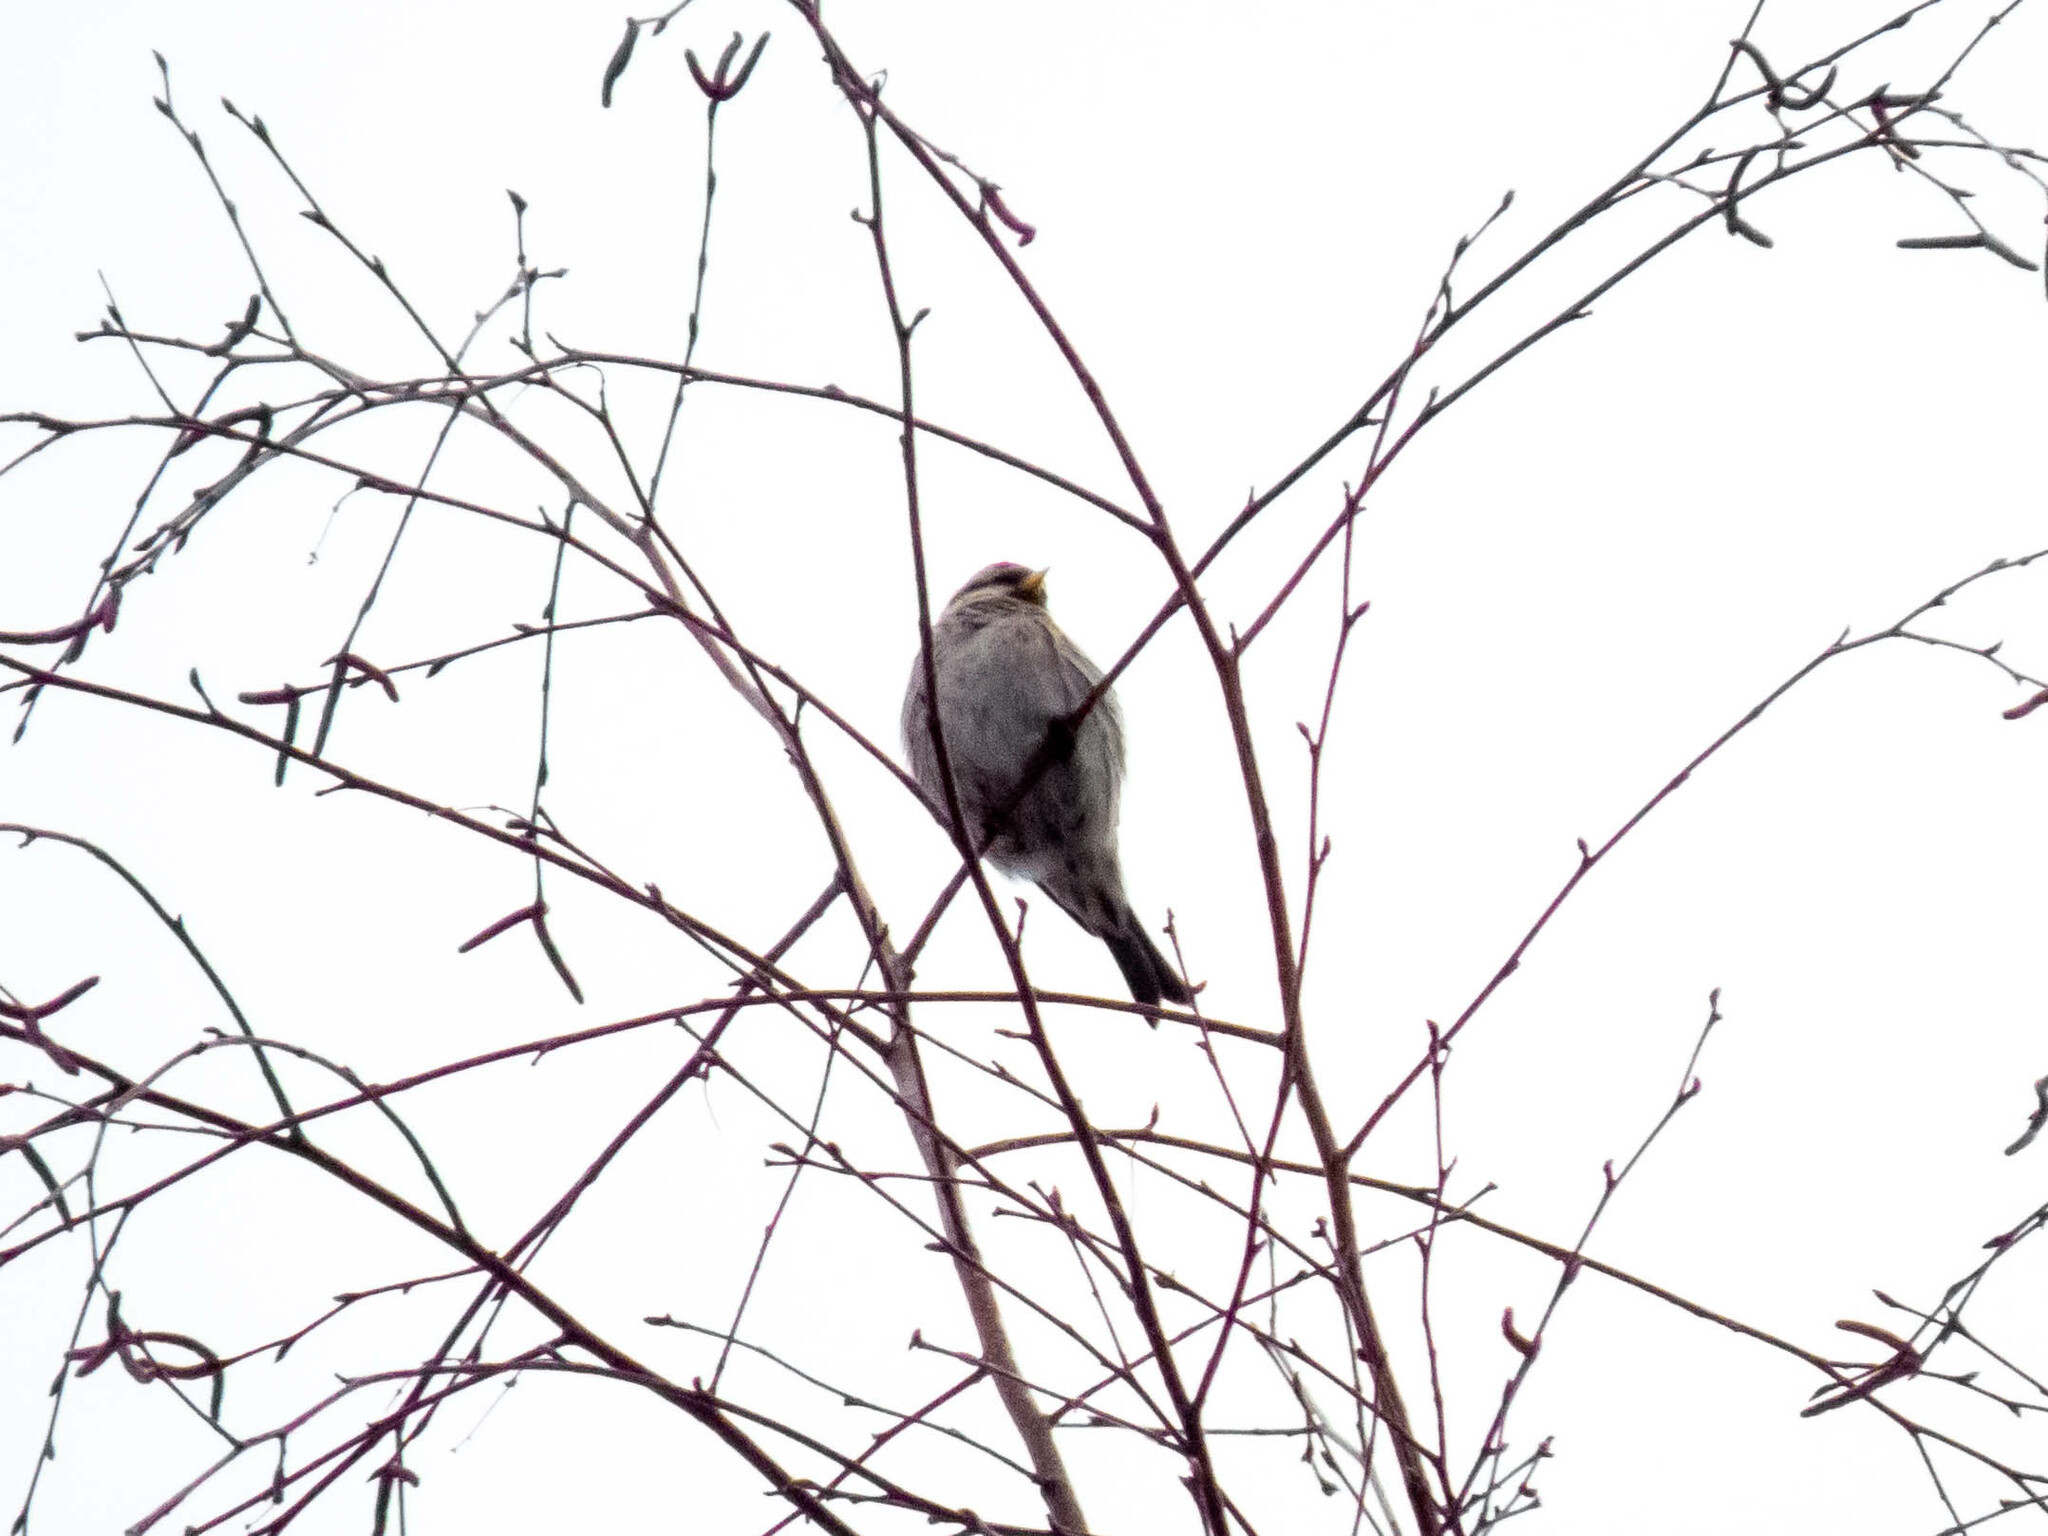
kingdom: Animalia
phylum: Chordata
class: Aves
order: Passeriformes
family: Fringillidae
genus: Acanthis
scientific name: Acanthis flammea
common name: Common redpoll
